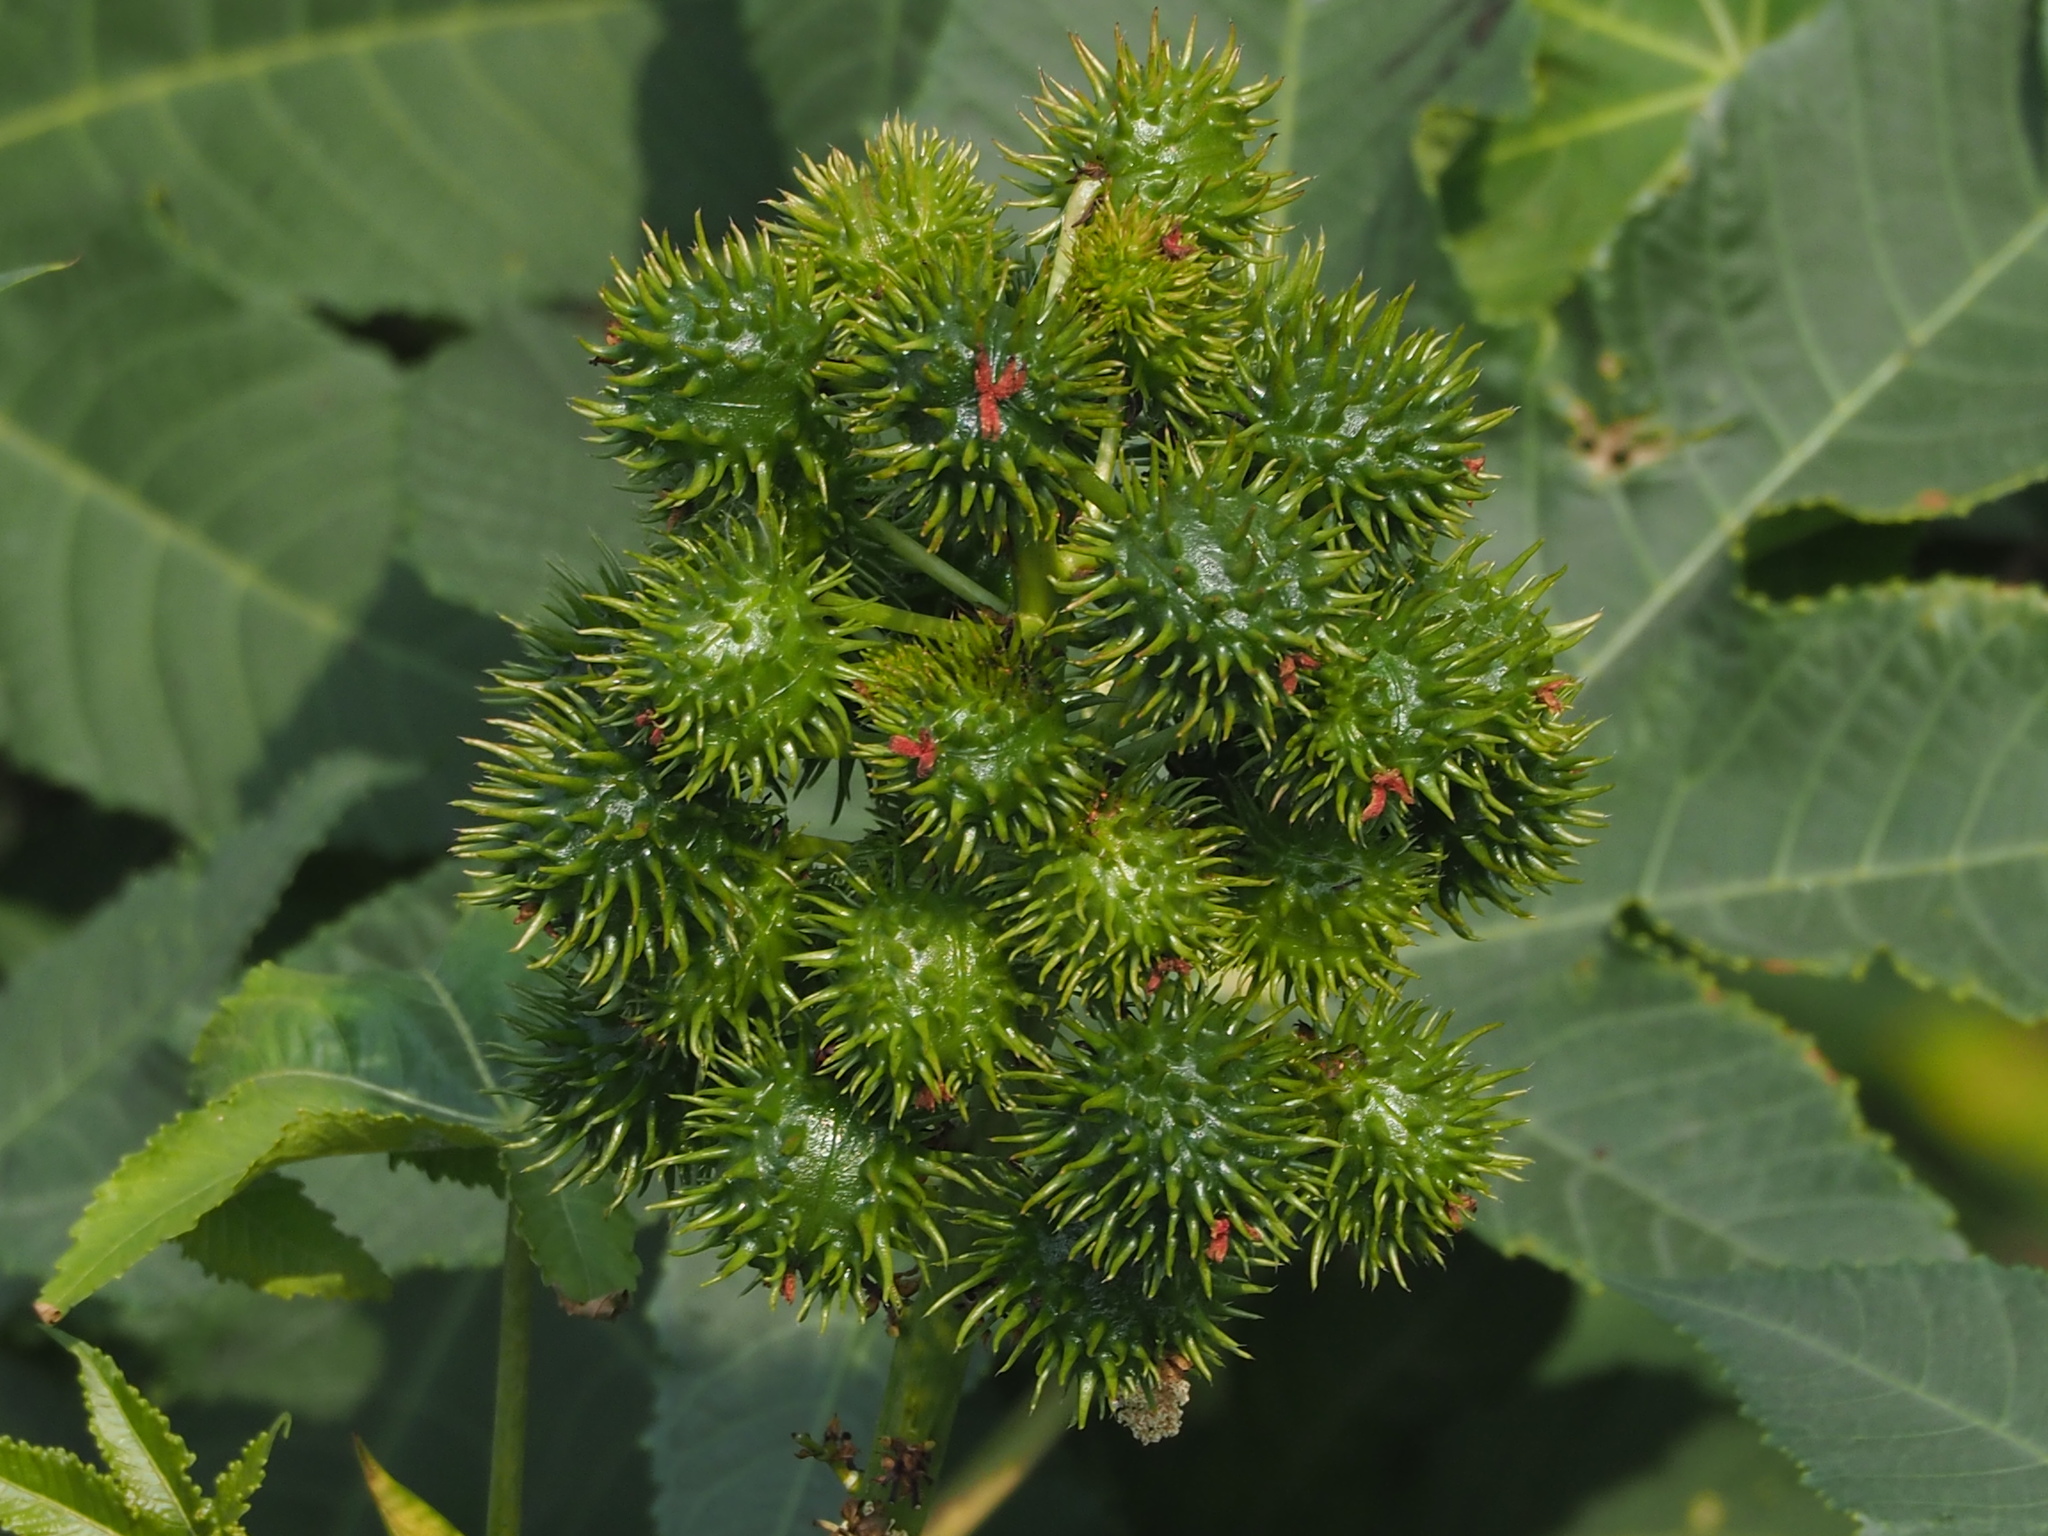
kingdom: Plantae
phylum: Tracheophyta
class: Magnoliopsida
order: Malpighiales
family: Euphorbiaceae
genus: Ricinus
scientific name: Ricinus communis
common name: Castor-oil-plant
